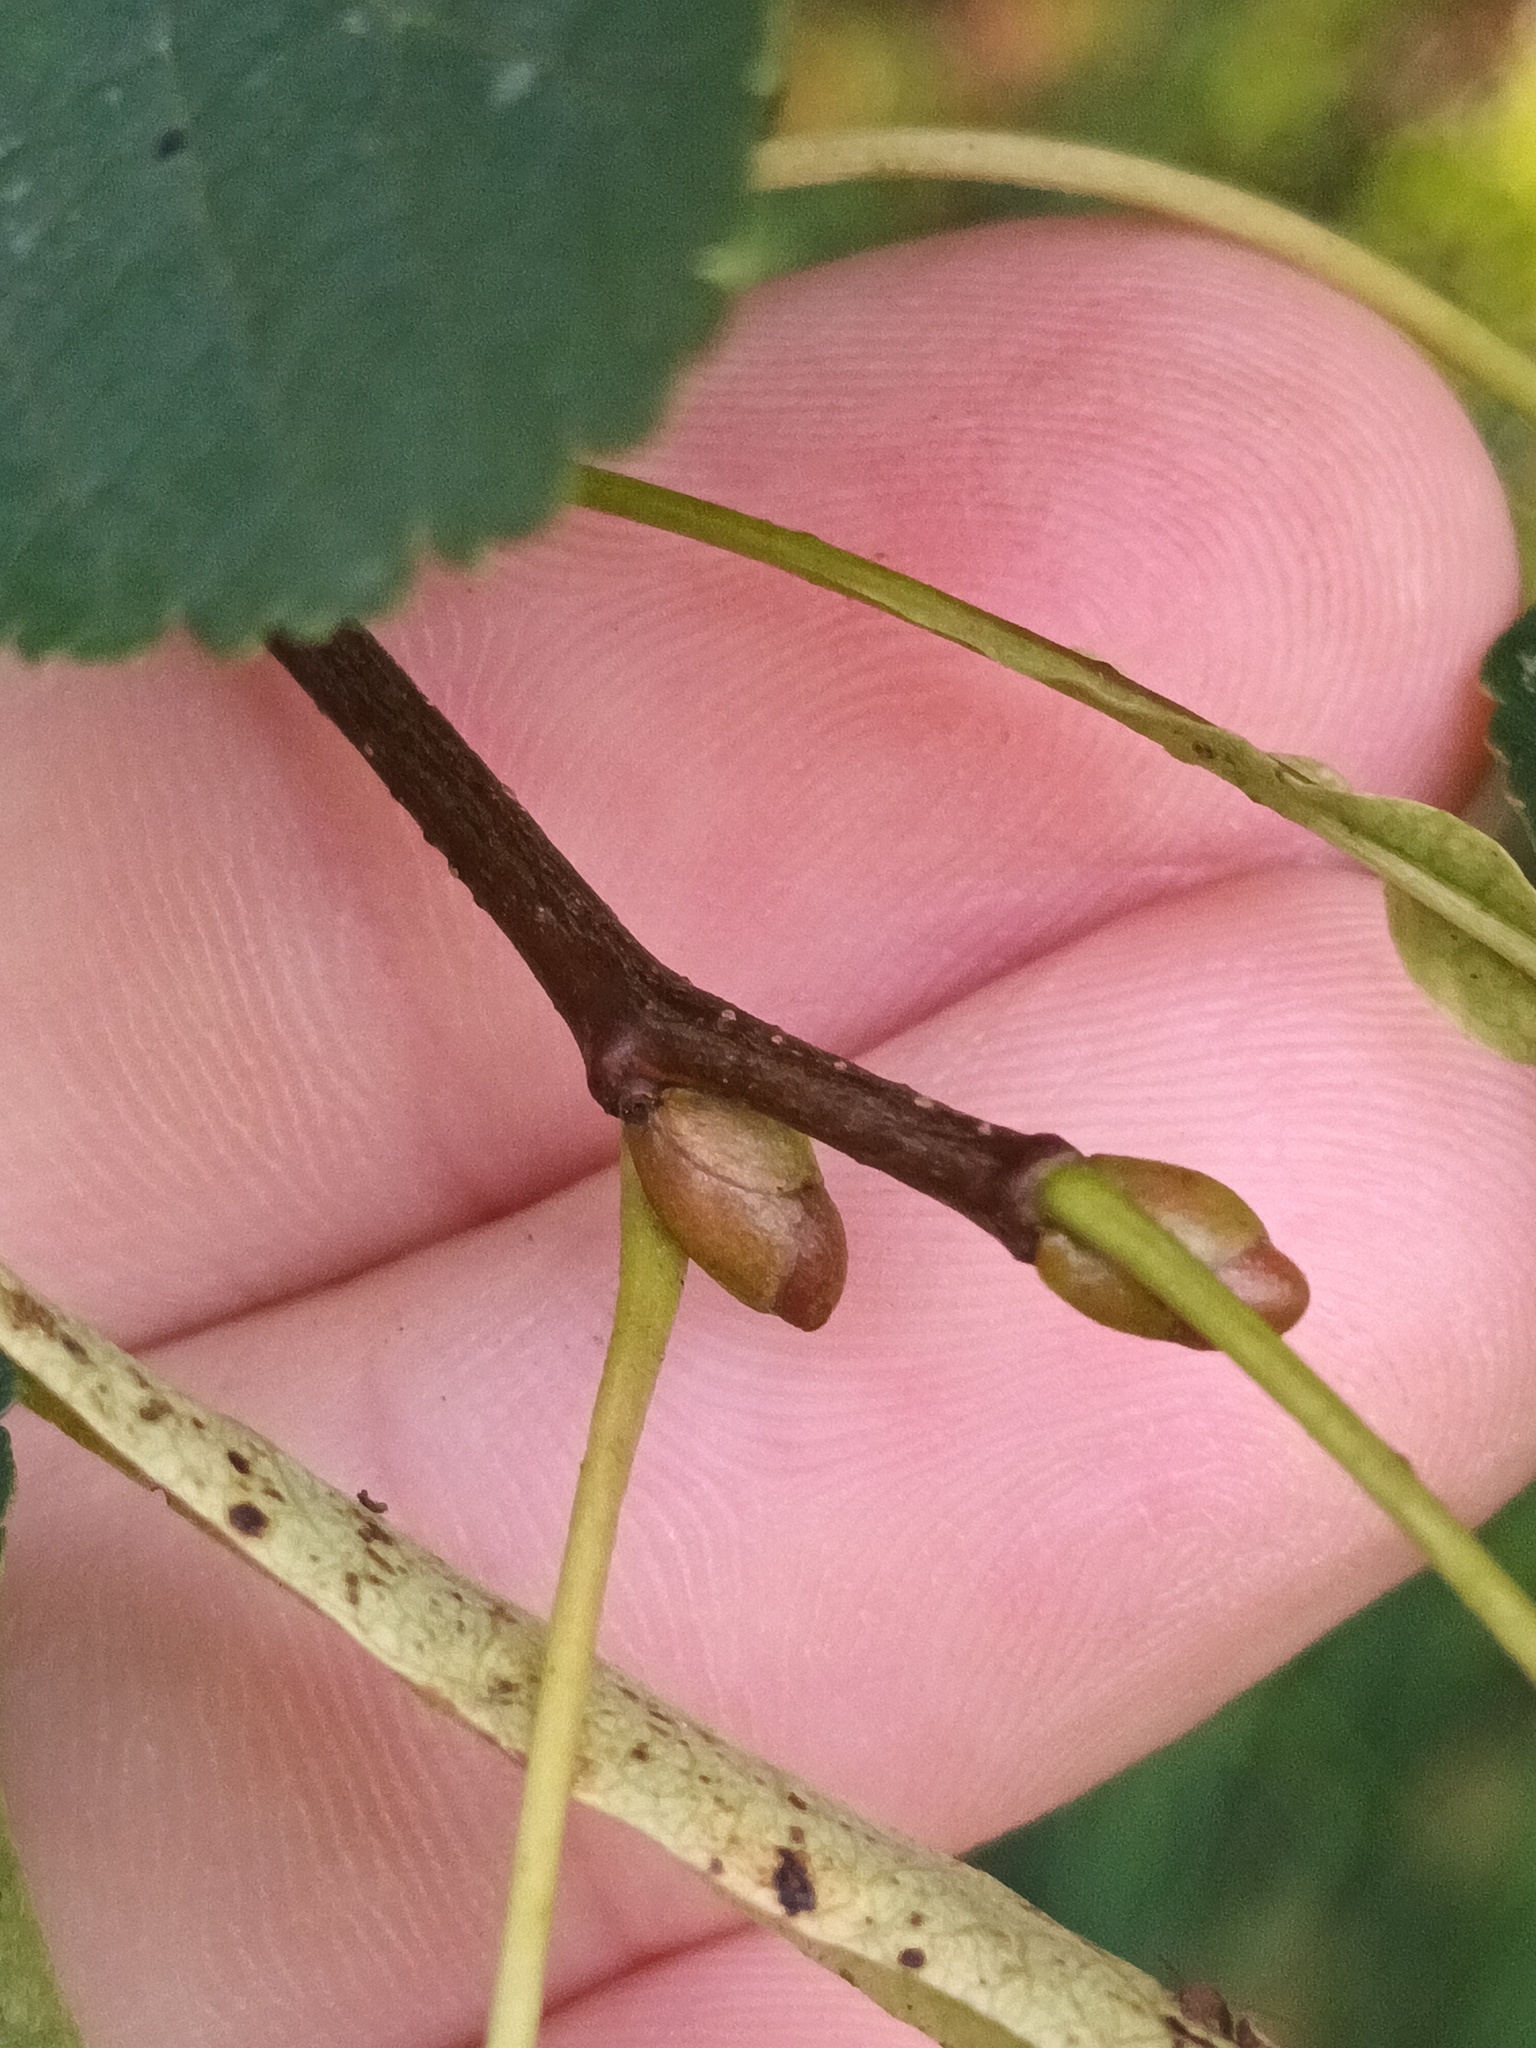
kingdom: Plantae
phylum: Tracheophyta
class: Magnoliopsida
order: Malvales
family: Malvaceae
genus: Tilia
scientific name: Tilia cordata
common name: Small-leaved lime
